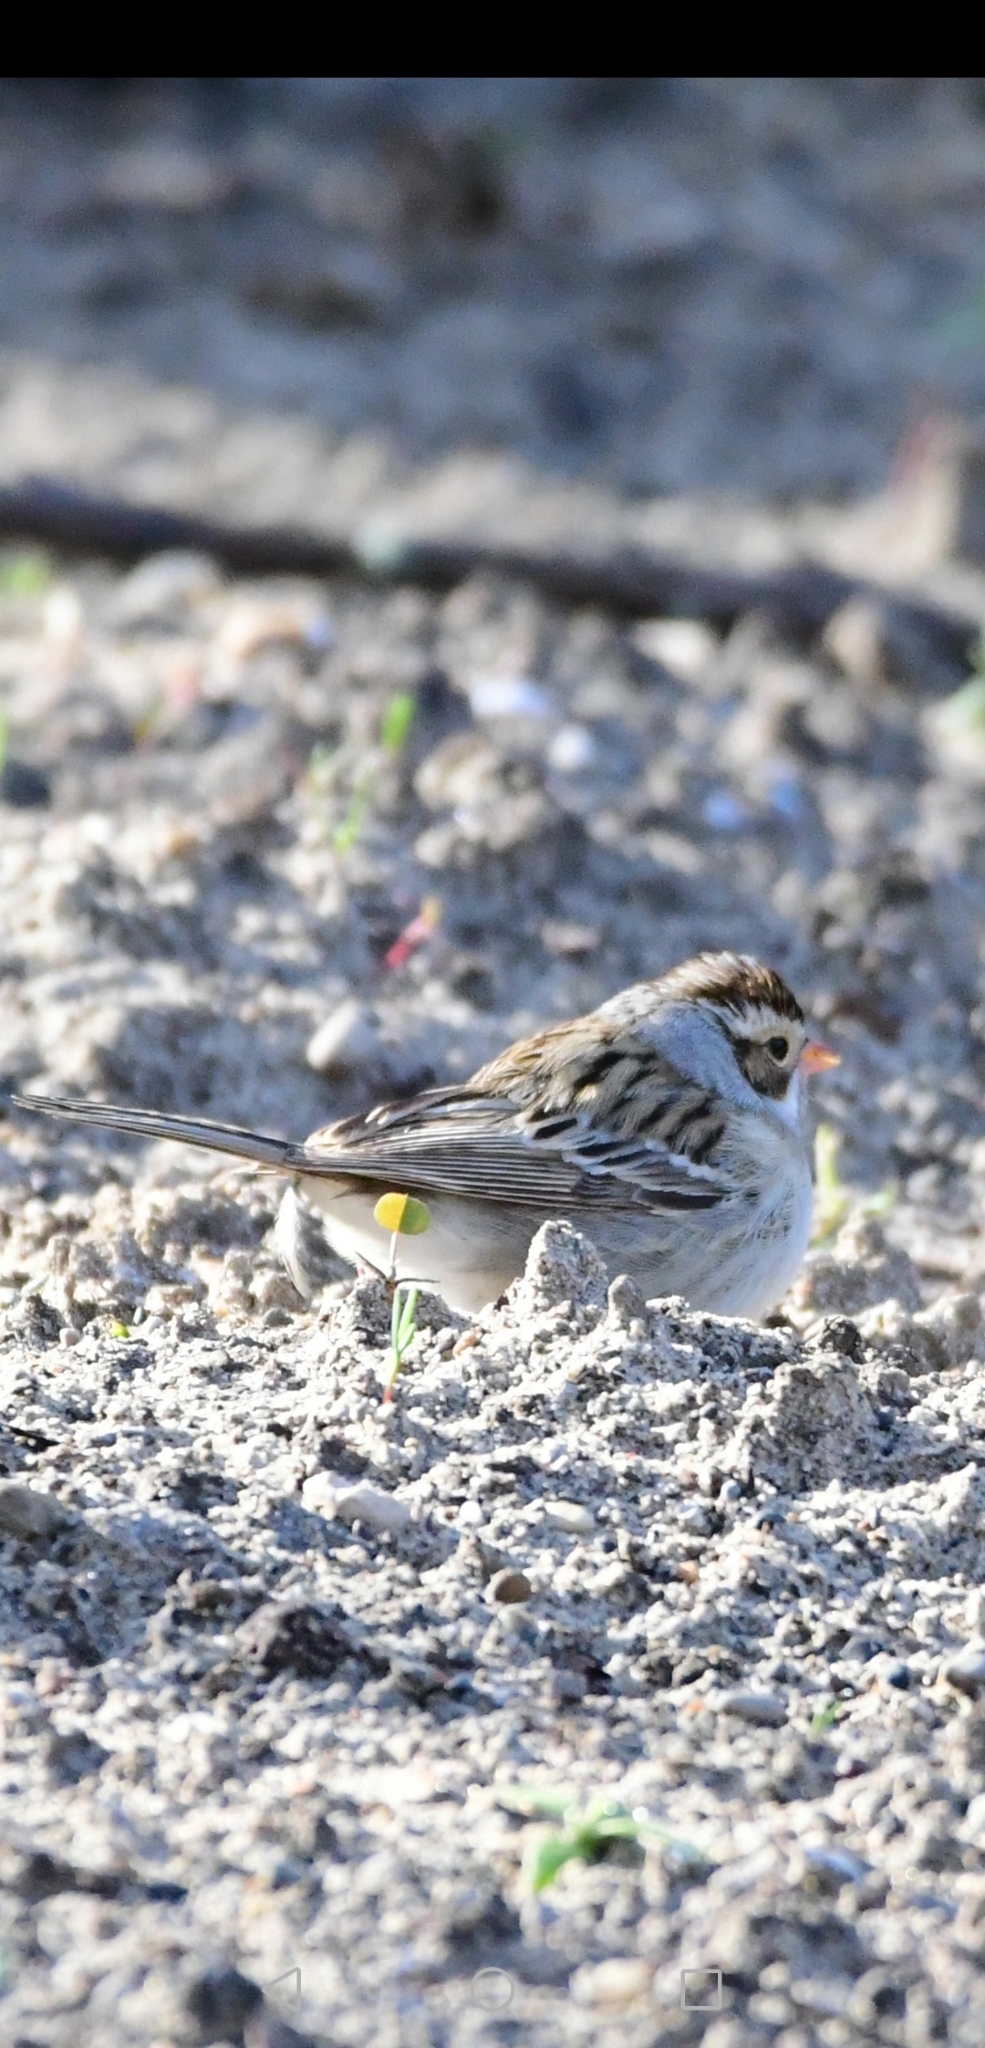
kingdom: Animalia
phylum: Chordata
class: Aves
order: Passeriformes
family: Passerellidae
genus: Spizella
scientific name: Spizella pallida
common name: Clay-colored sparrow
